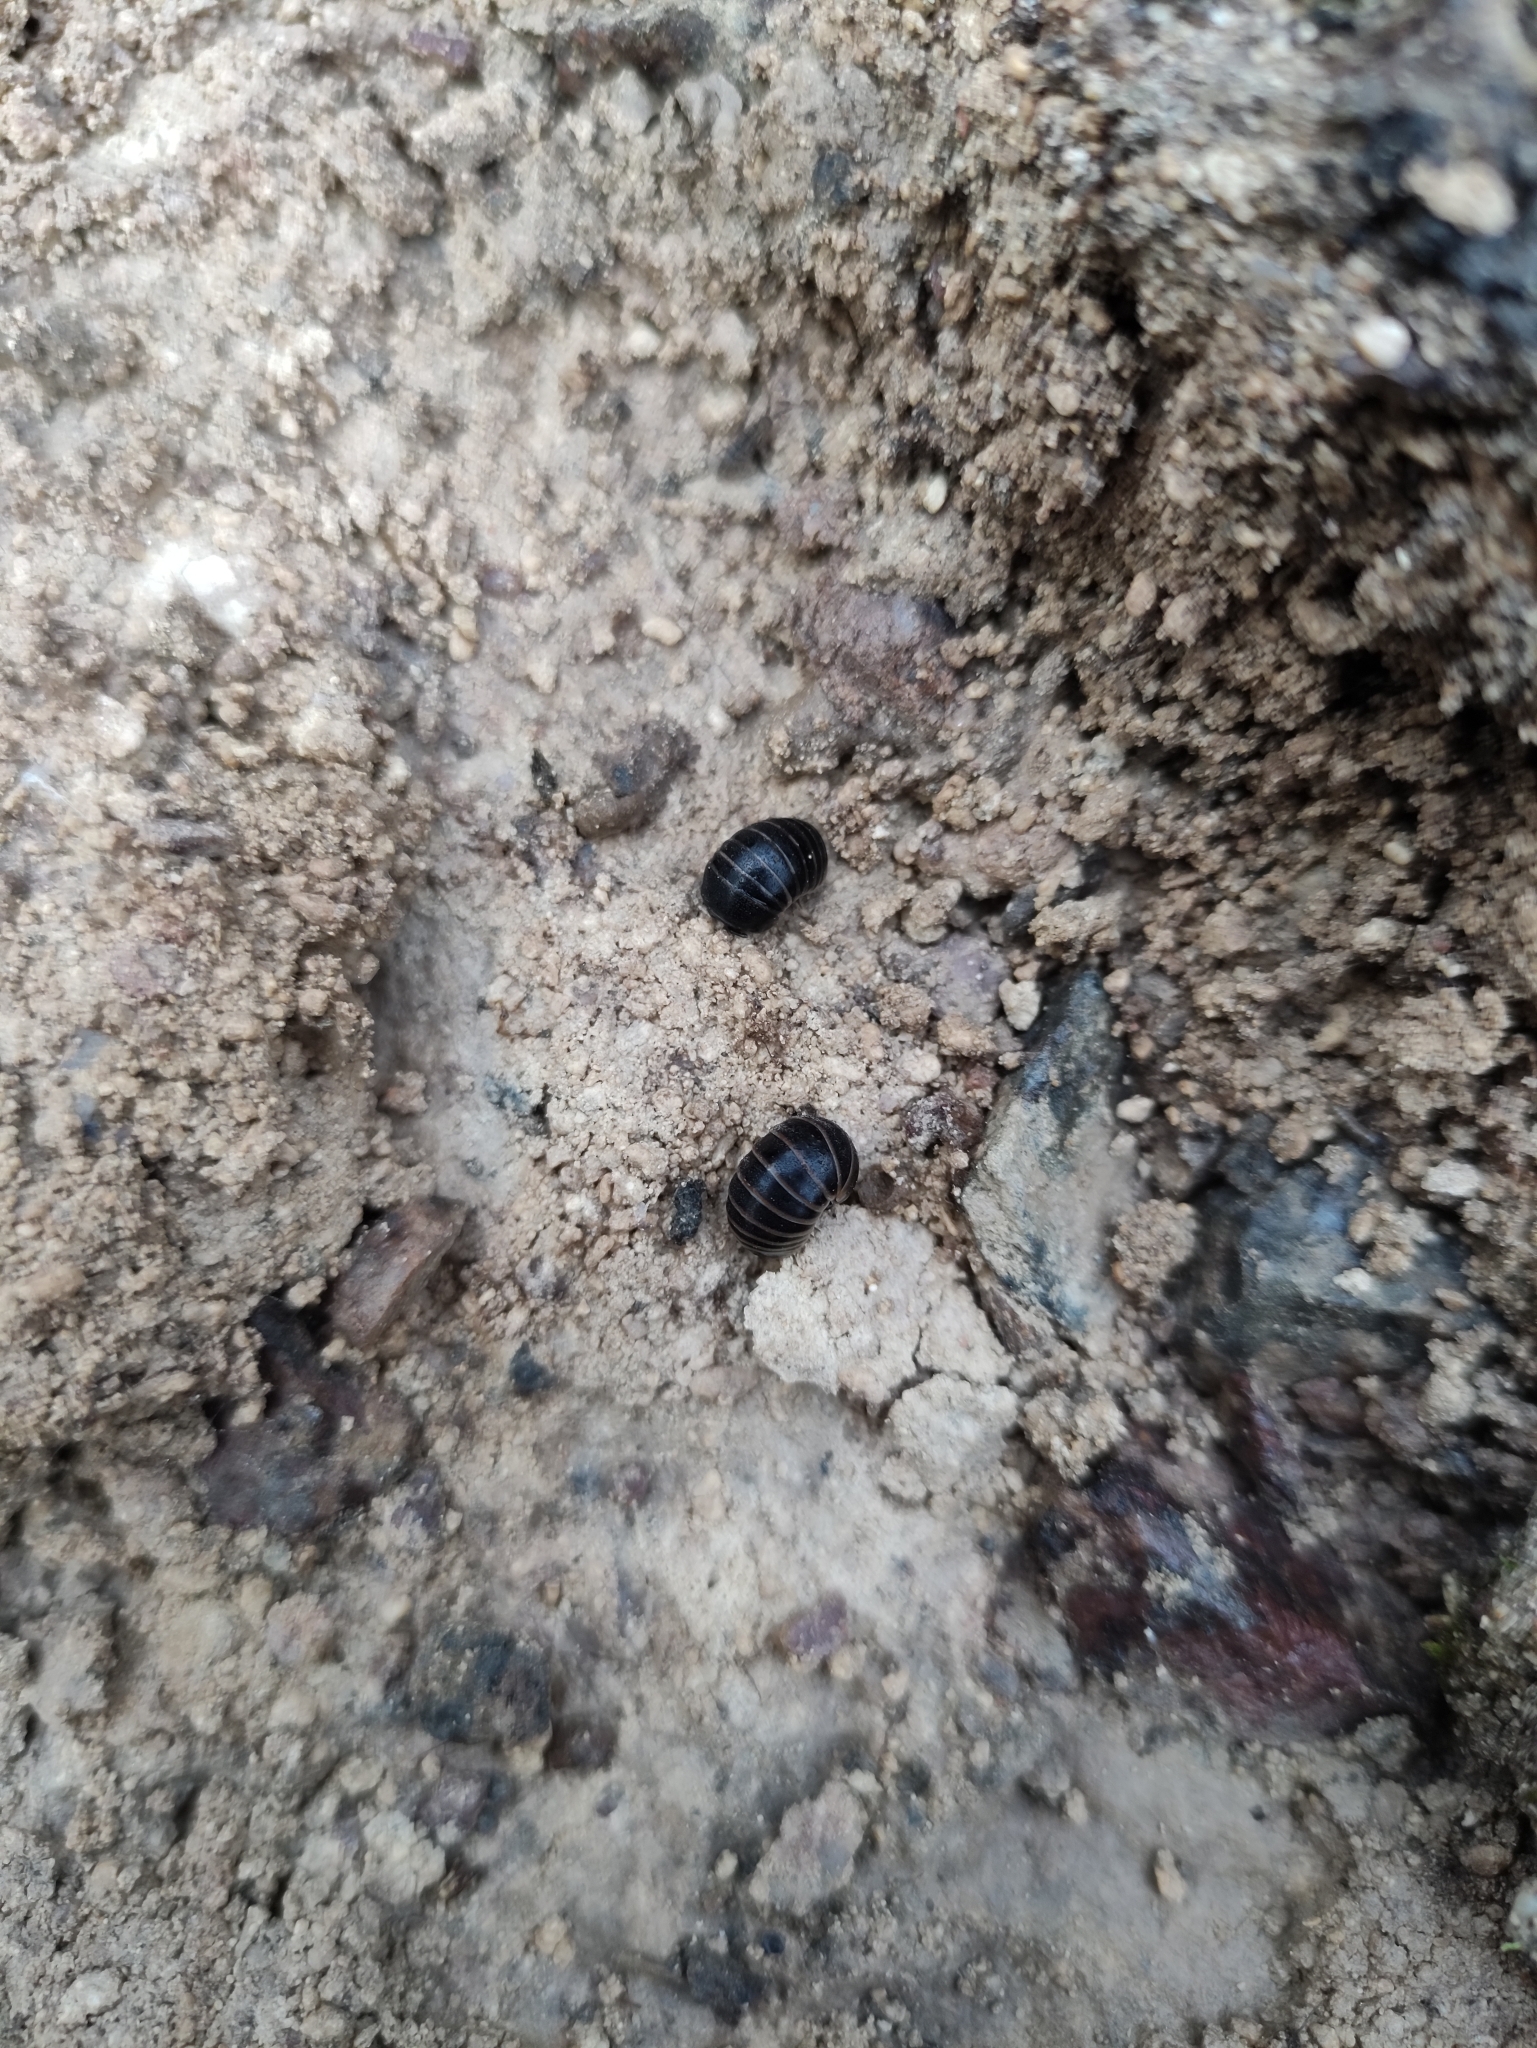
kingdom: Animalia
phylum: Arthropoda
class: Diplopoda
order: Glomerida
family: Glomeridae
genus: Glomeris
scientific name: Glomeris marginata
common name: Bordered pill millipede
